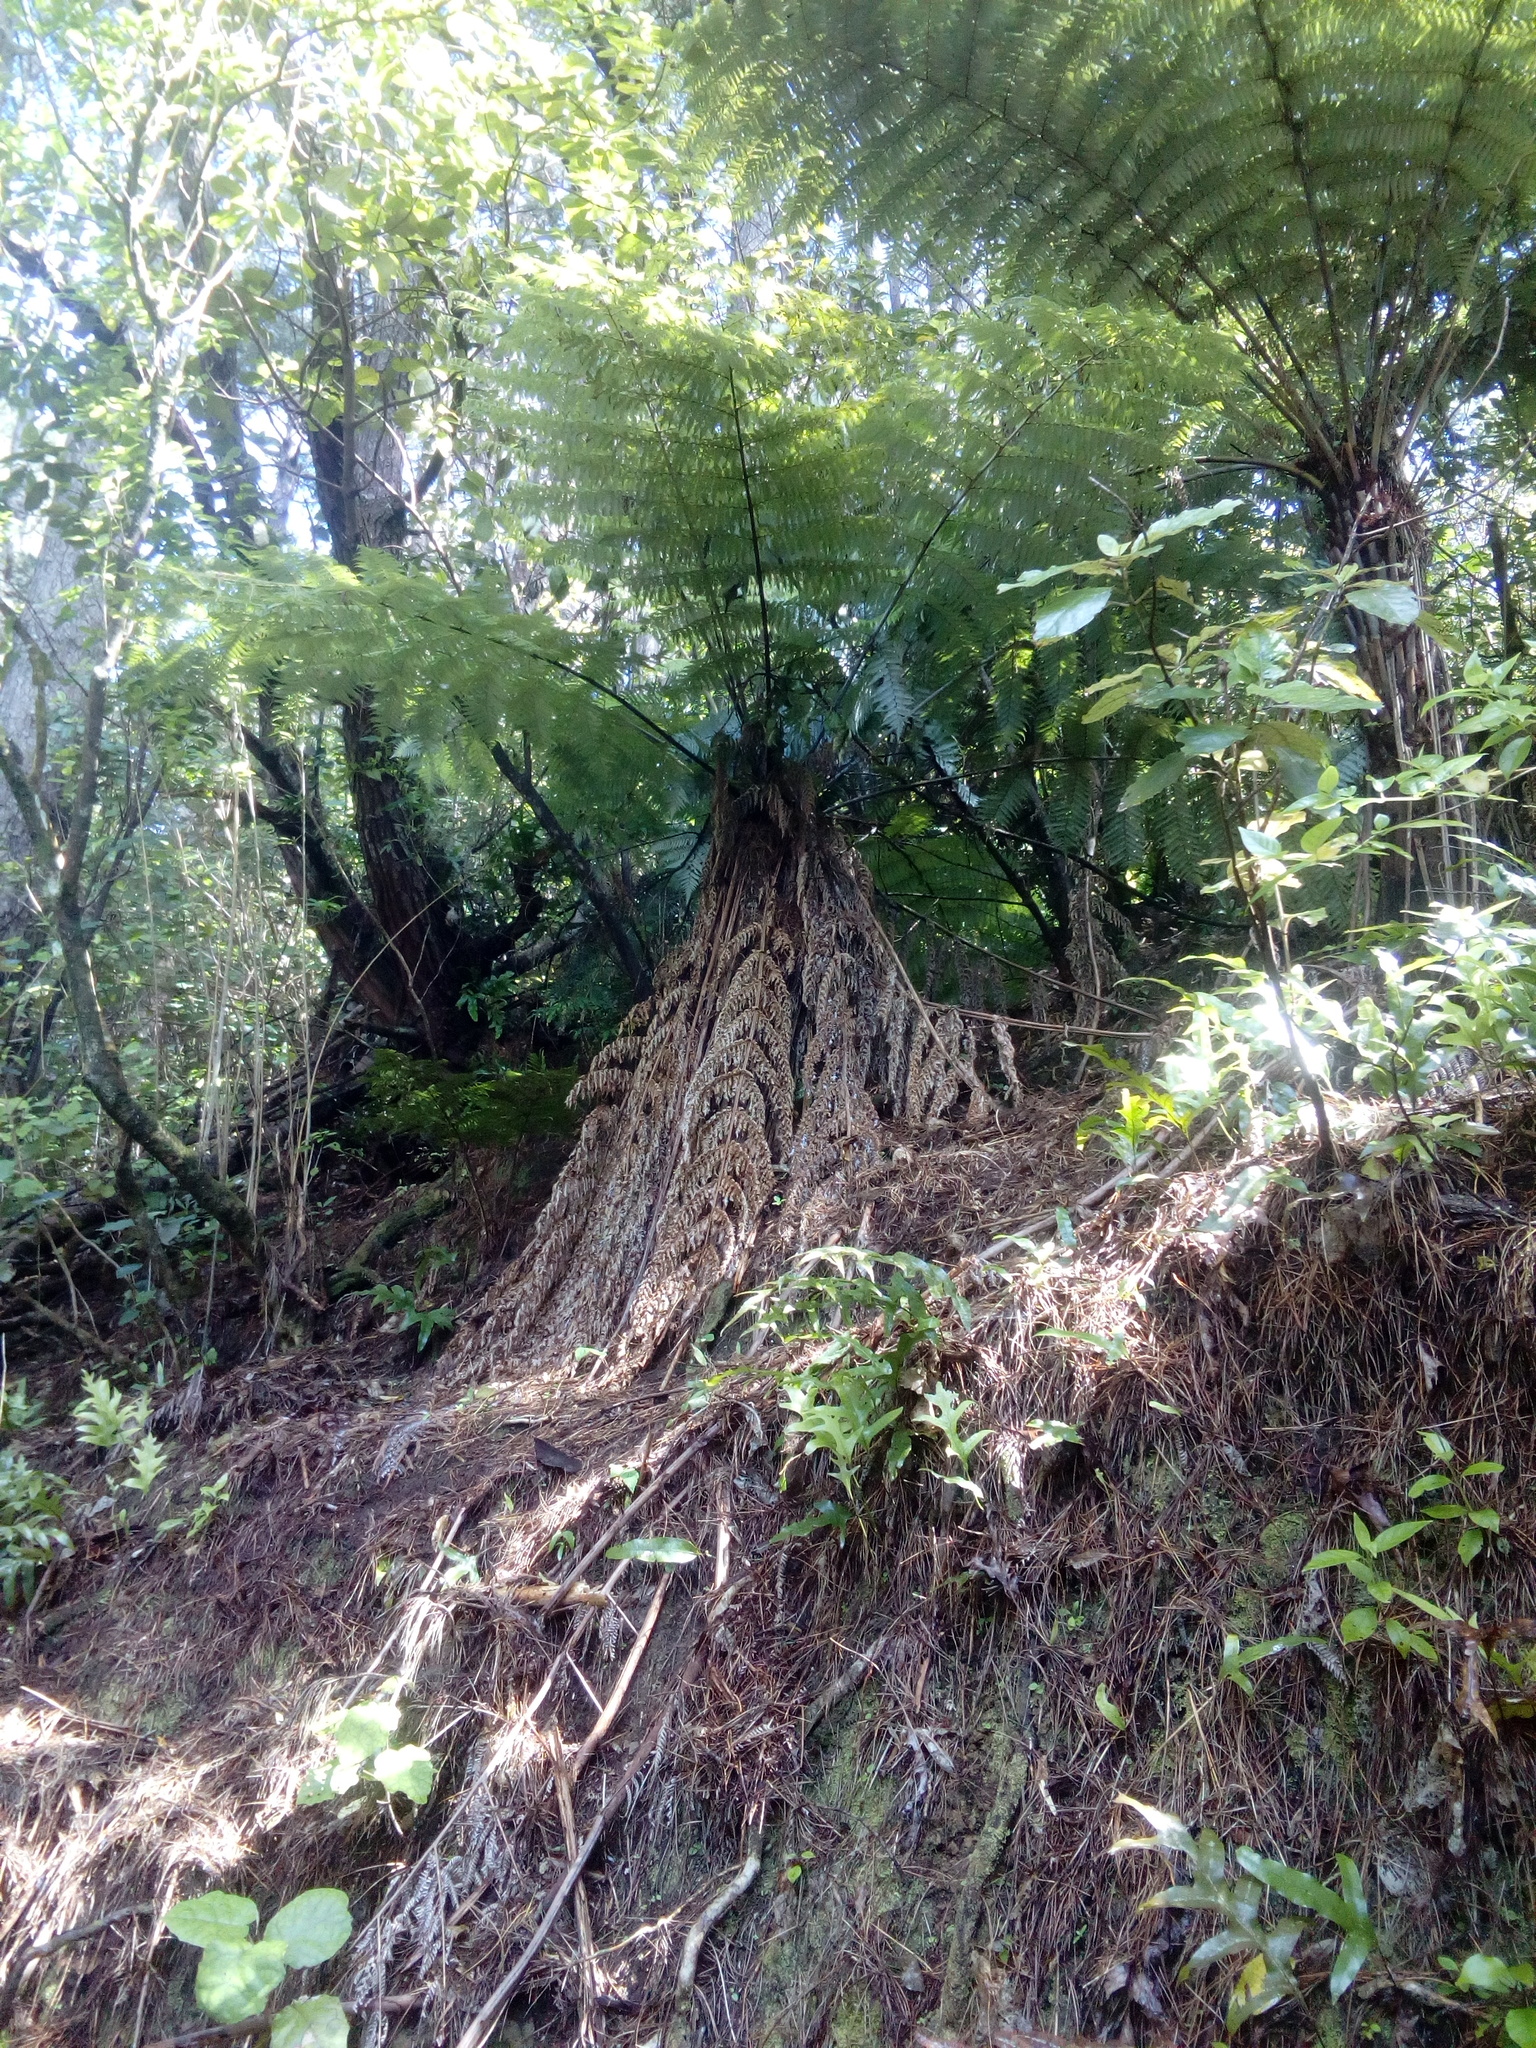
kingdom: Plantae
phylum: Tracheophyta
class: Polypodiopsida
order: Cyatheales
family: Cyatheaceae
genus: Alsophila
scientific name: Alsophila dealbata
